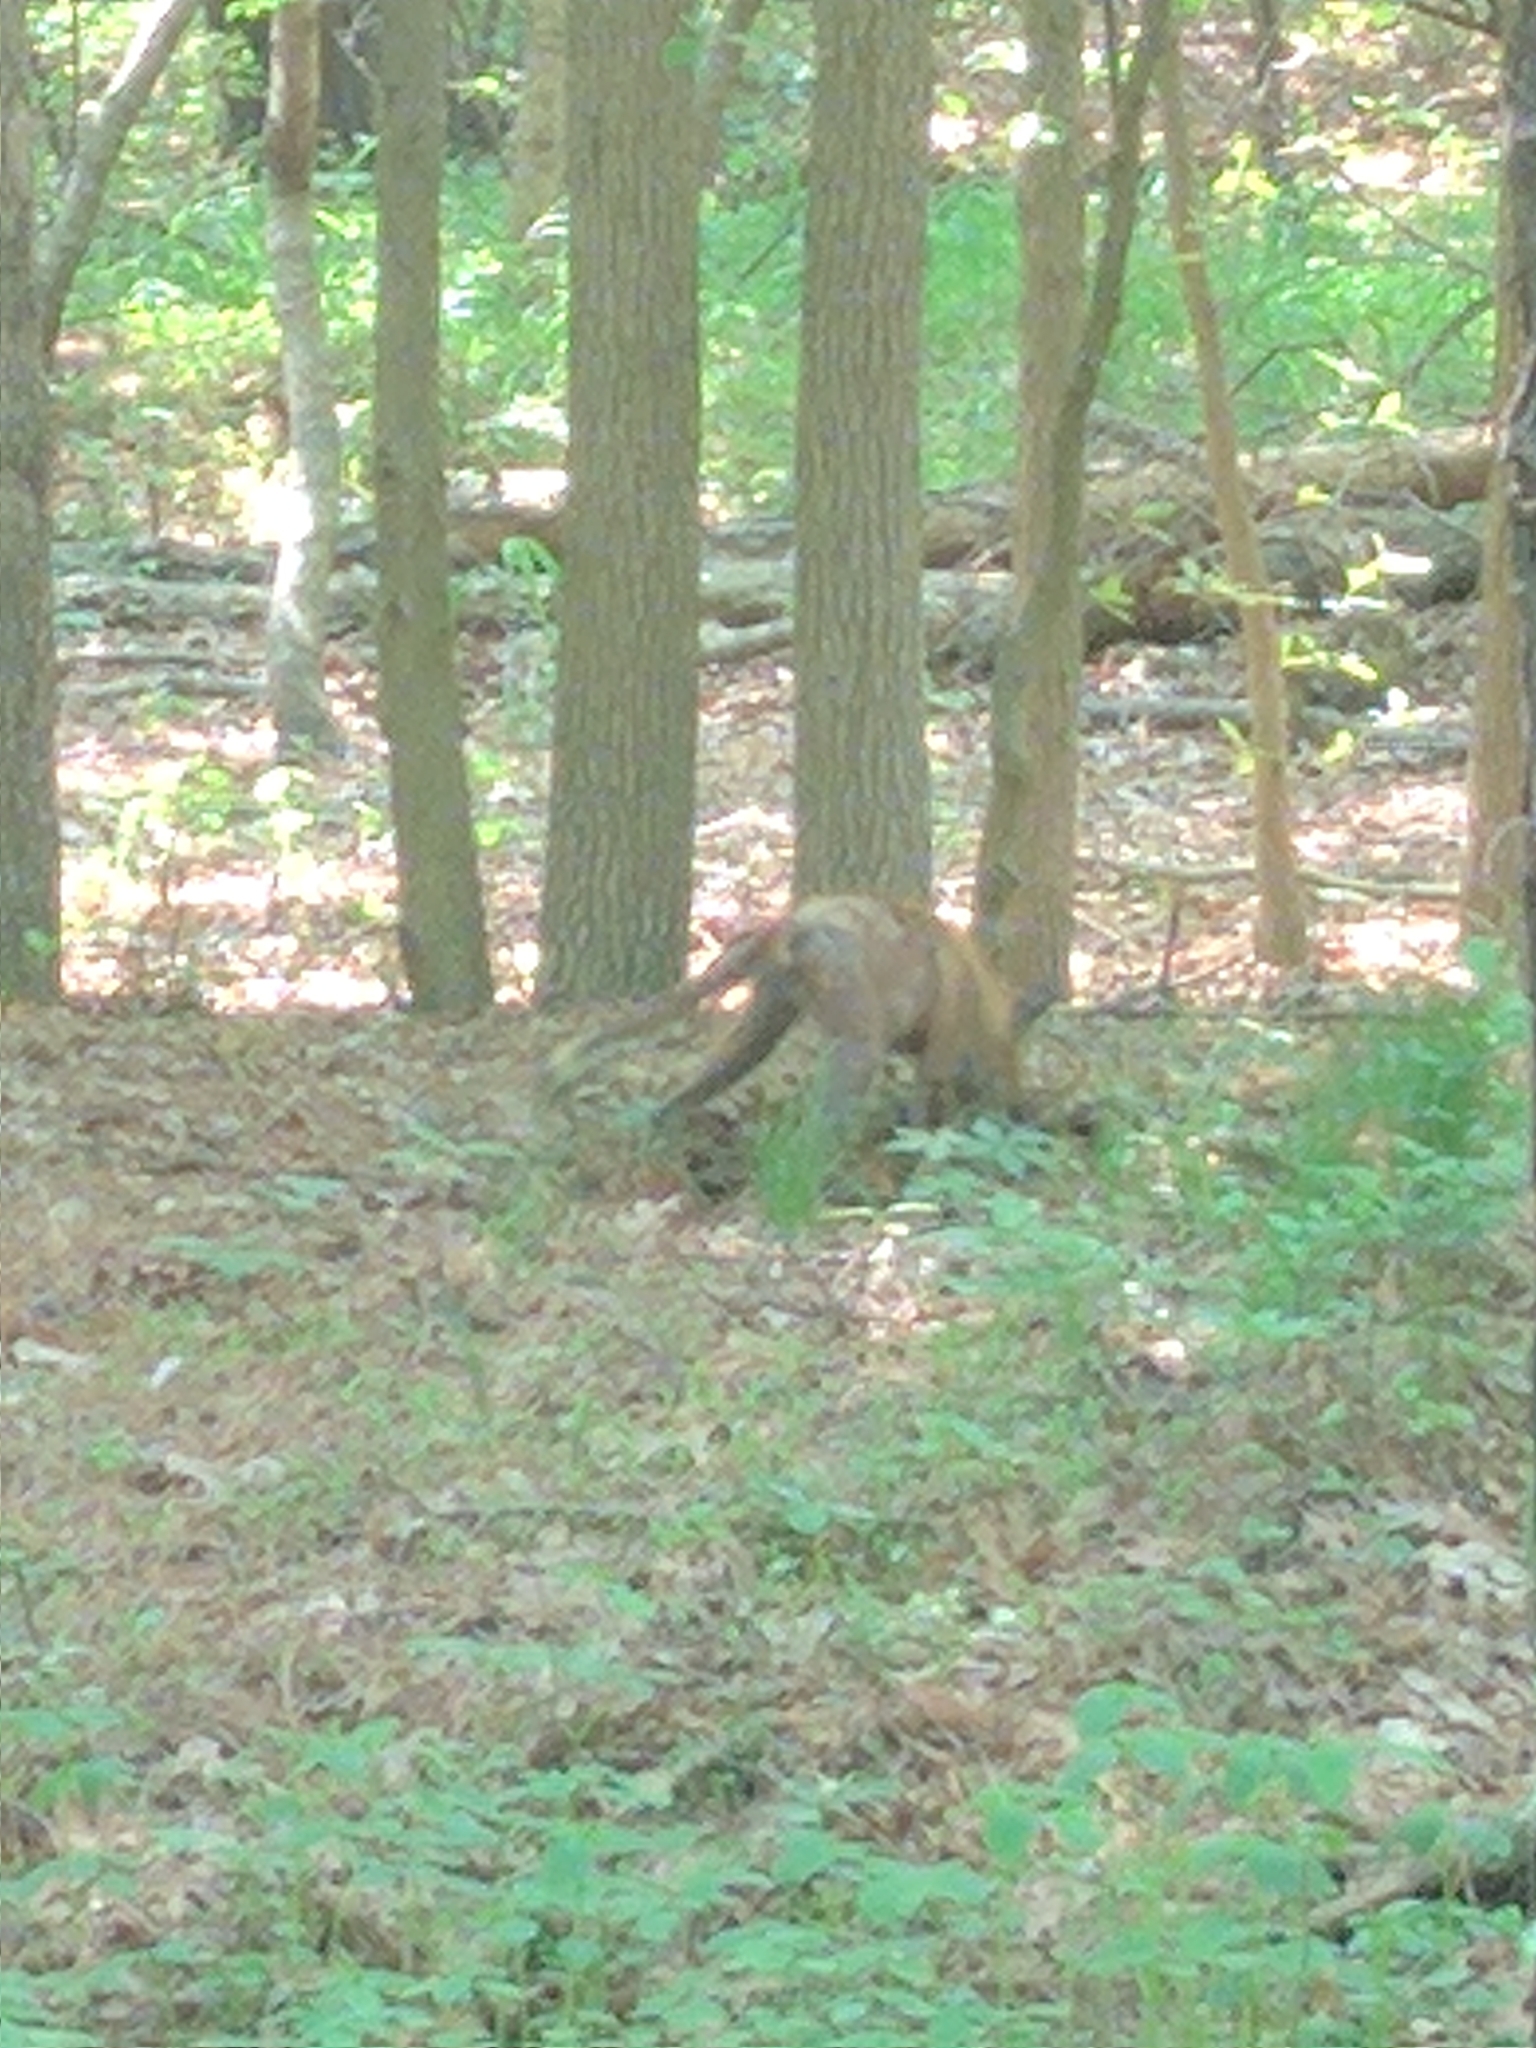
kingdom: Animalia
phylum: Chordata
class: Mammalia
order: Carnivora
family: Canidae
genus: Vulpes
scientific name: Vulpes vulpes
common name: Red fox
